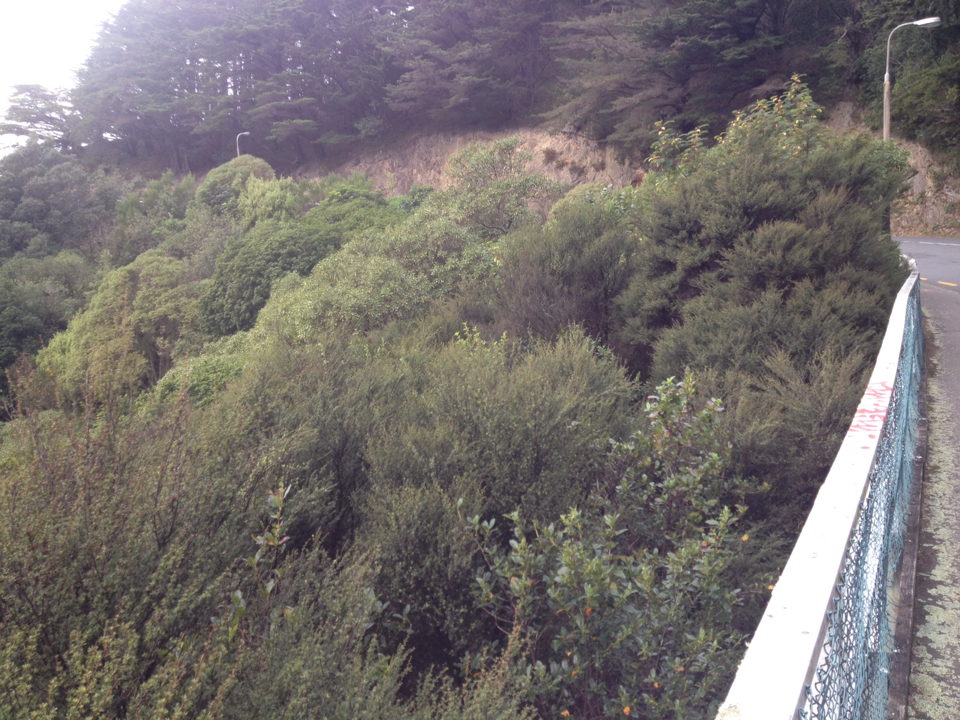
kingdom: Plantae
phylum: Tracheophyta
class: Magnoliopsida
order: Myrtales
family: Myrtaceae
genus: Leptospermum
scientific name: Leptospermum scoparium
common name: Broom tea-tree
